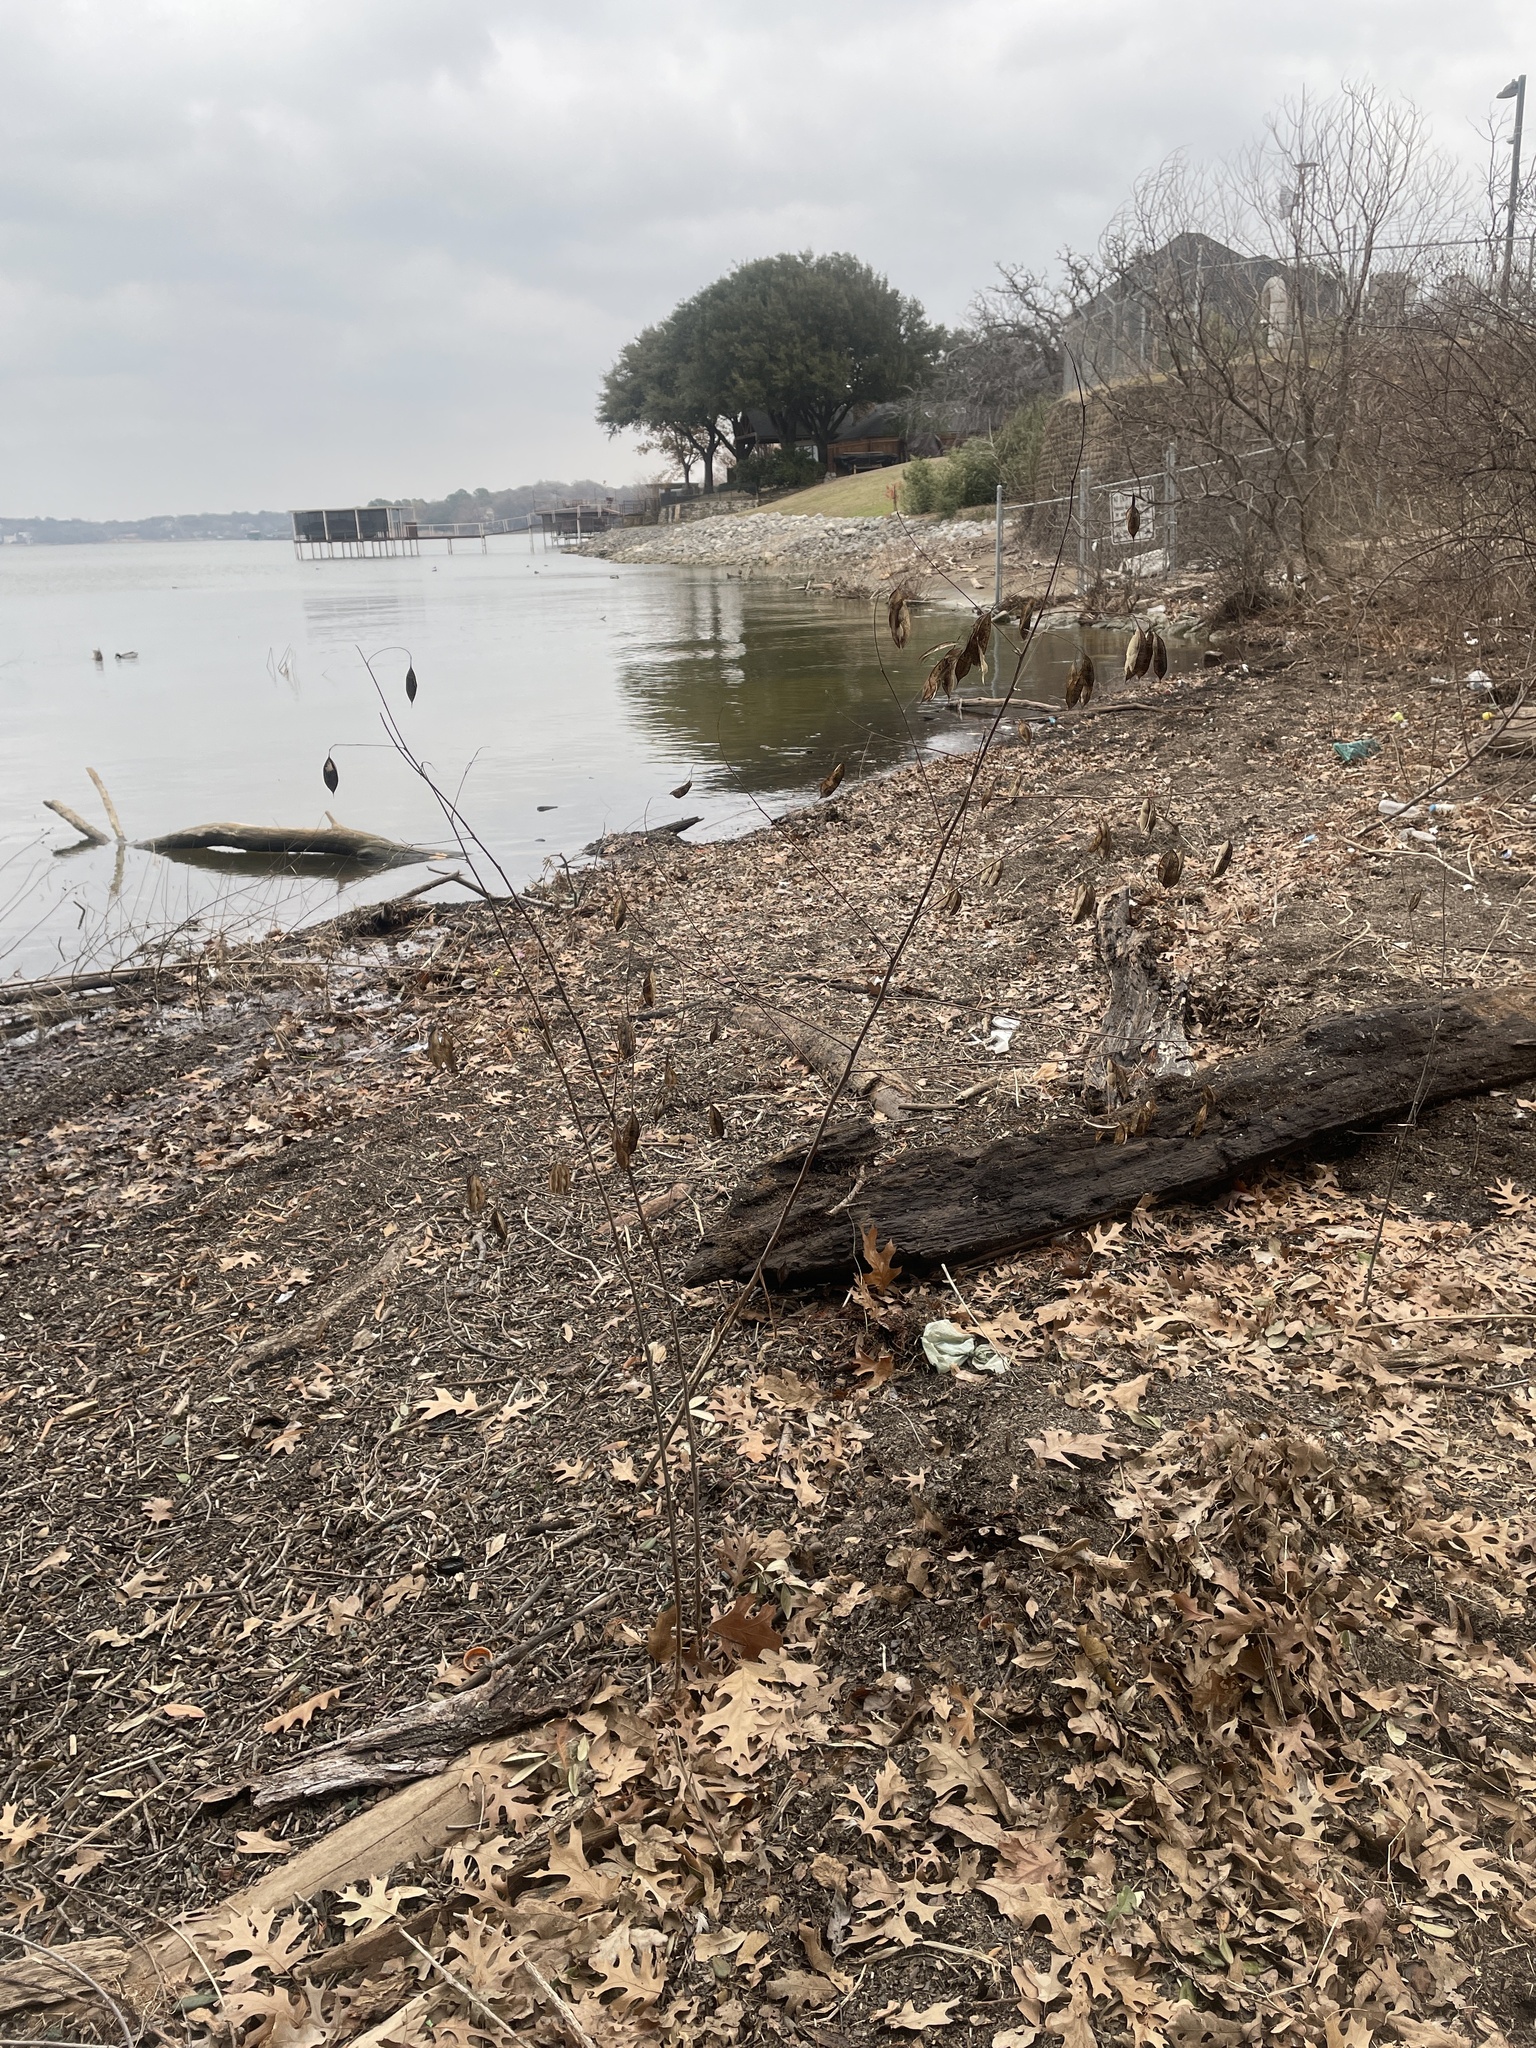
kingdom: Plantae
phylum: Tracheophyta
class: Magnoliopsida
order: Fabales
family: Fabaceae
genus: Sesbania
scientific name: Sesbania vesicaria
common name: Bagpod
